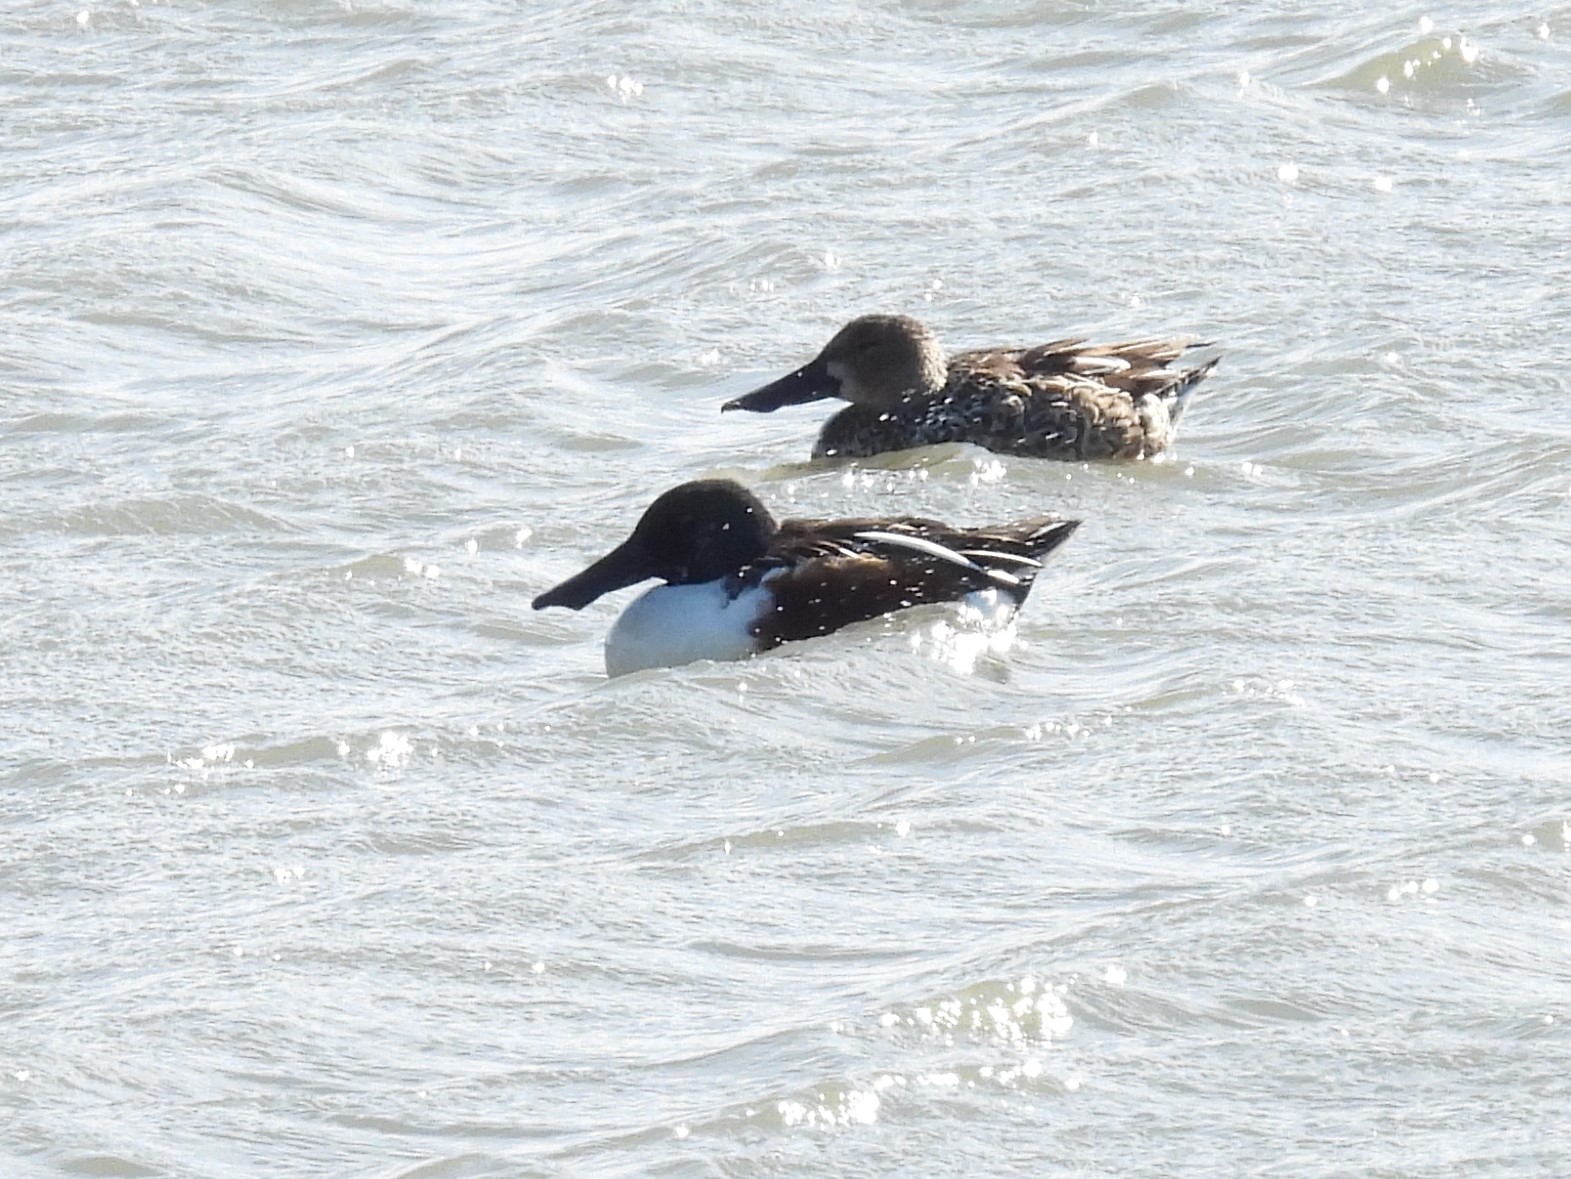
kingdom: Animalia
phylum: Chordata
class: Aves
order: Anseriformes
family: Anatidae
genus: Spatula
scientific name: Spatula clypeata
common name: Northern shoveler
